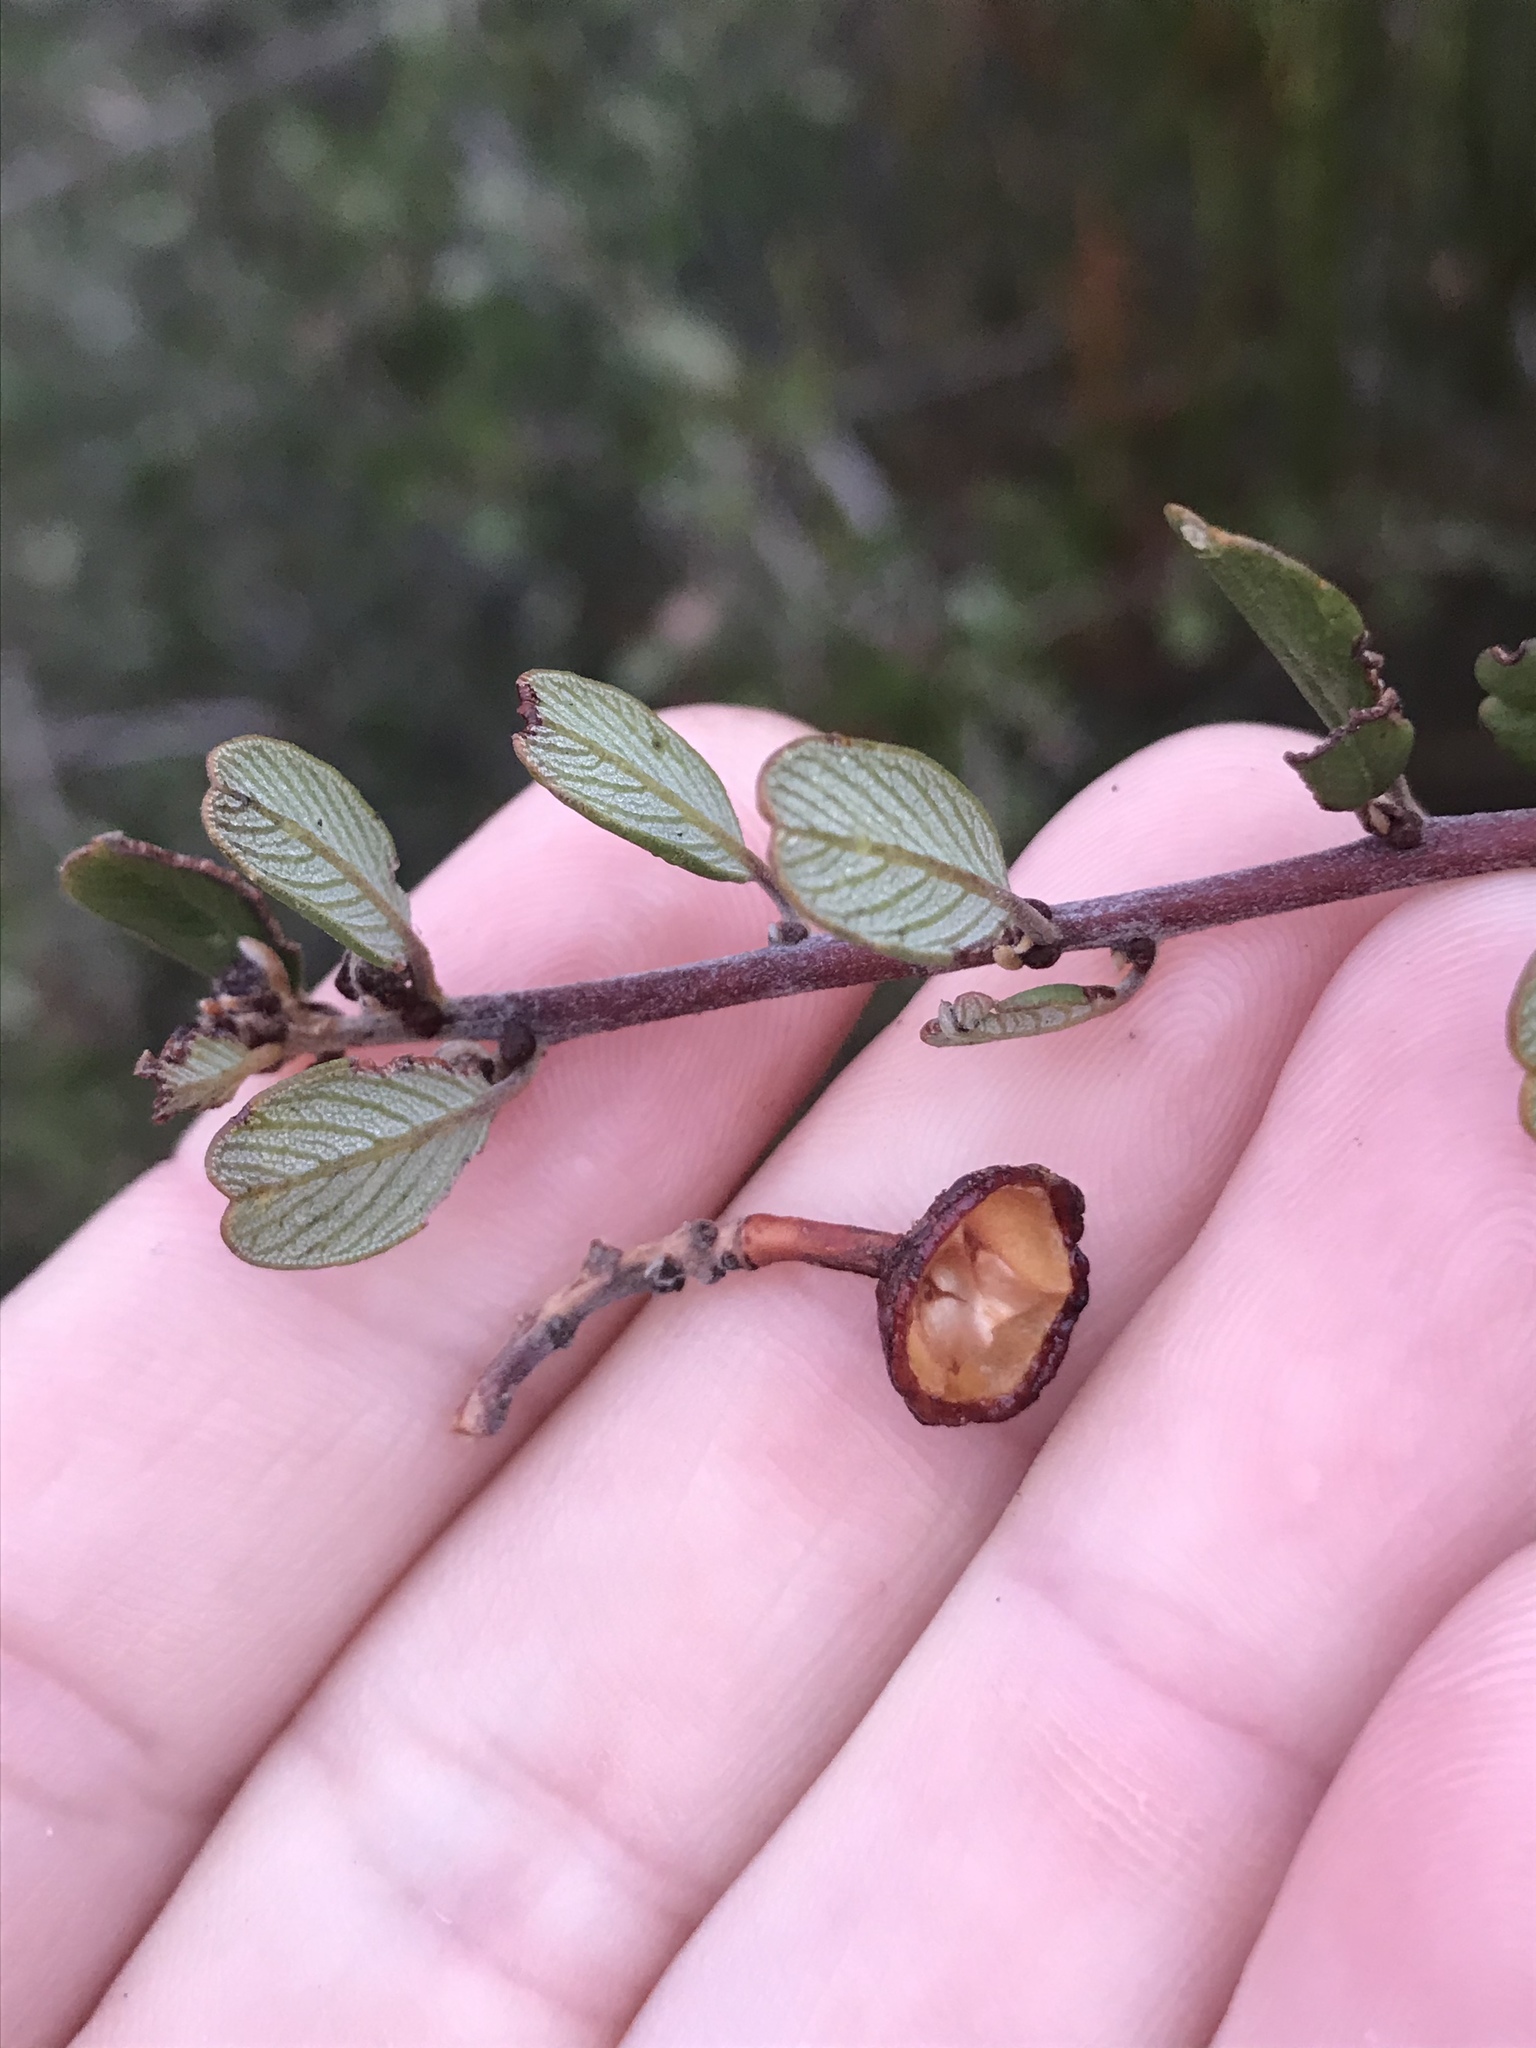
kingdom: Plantae
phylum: Tracheophyta
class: Magnoliopsida
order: Rosales
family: Rhamnaceae
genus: Ceanothus
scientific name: Ceanothus megacarpus
